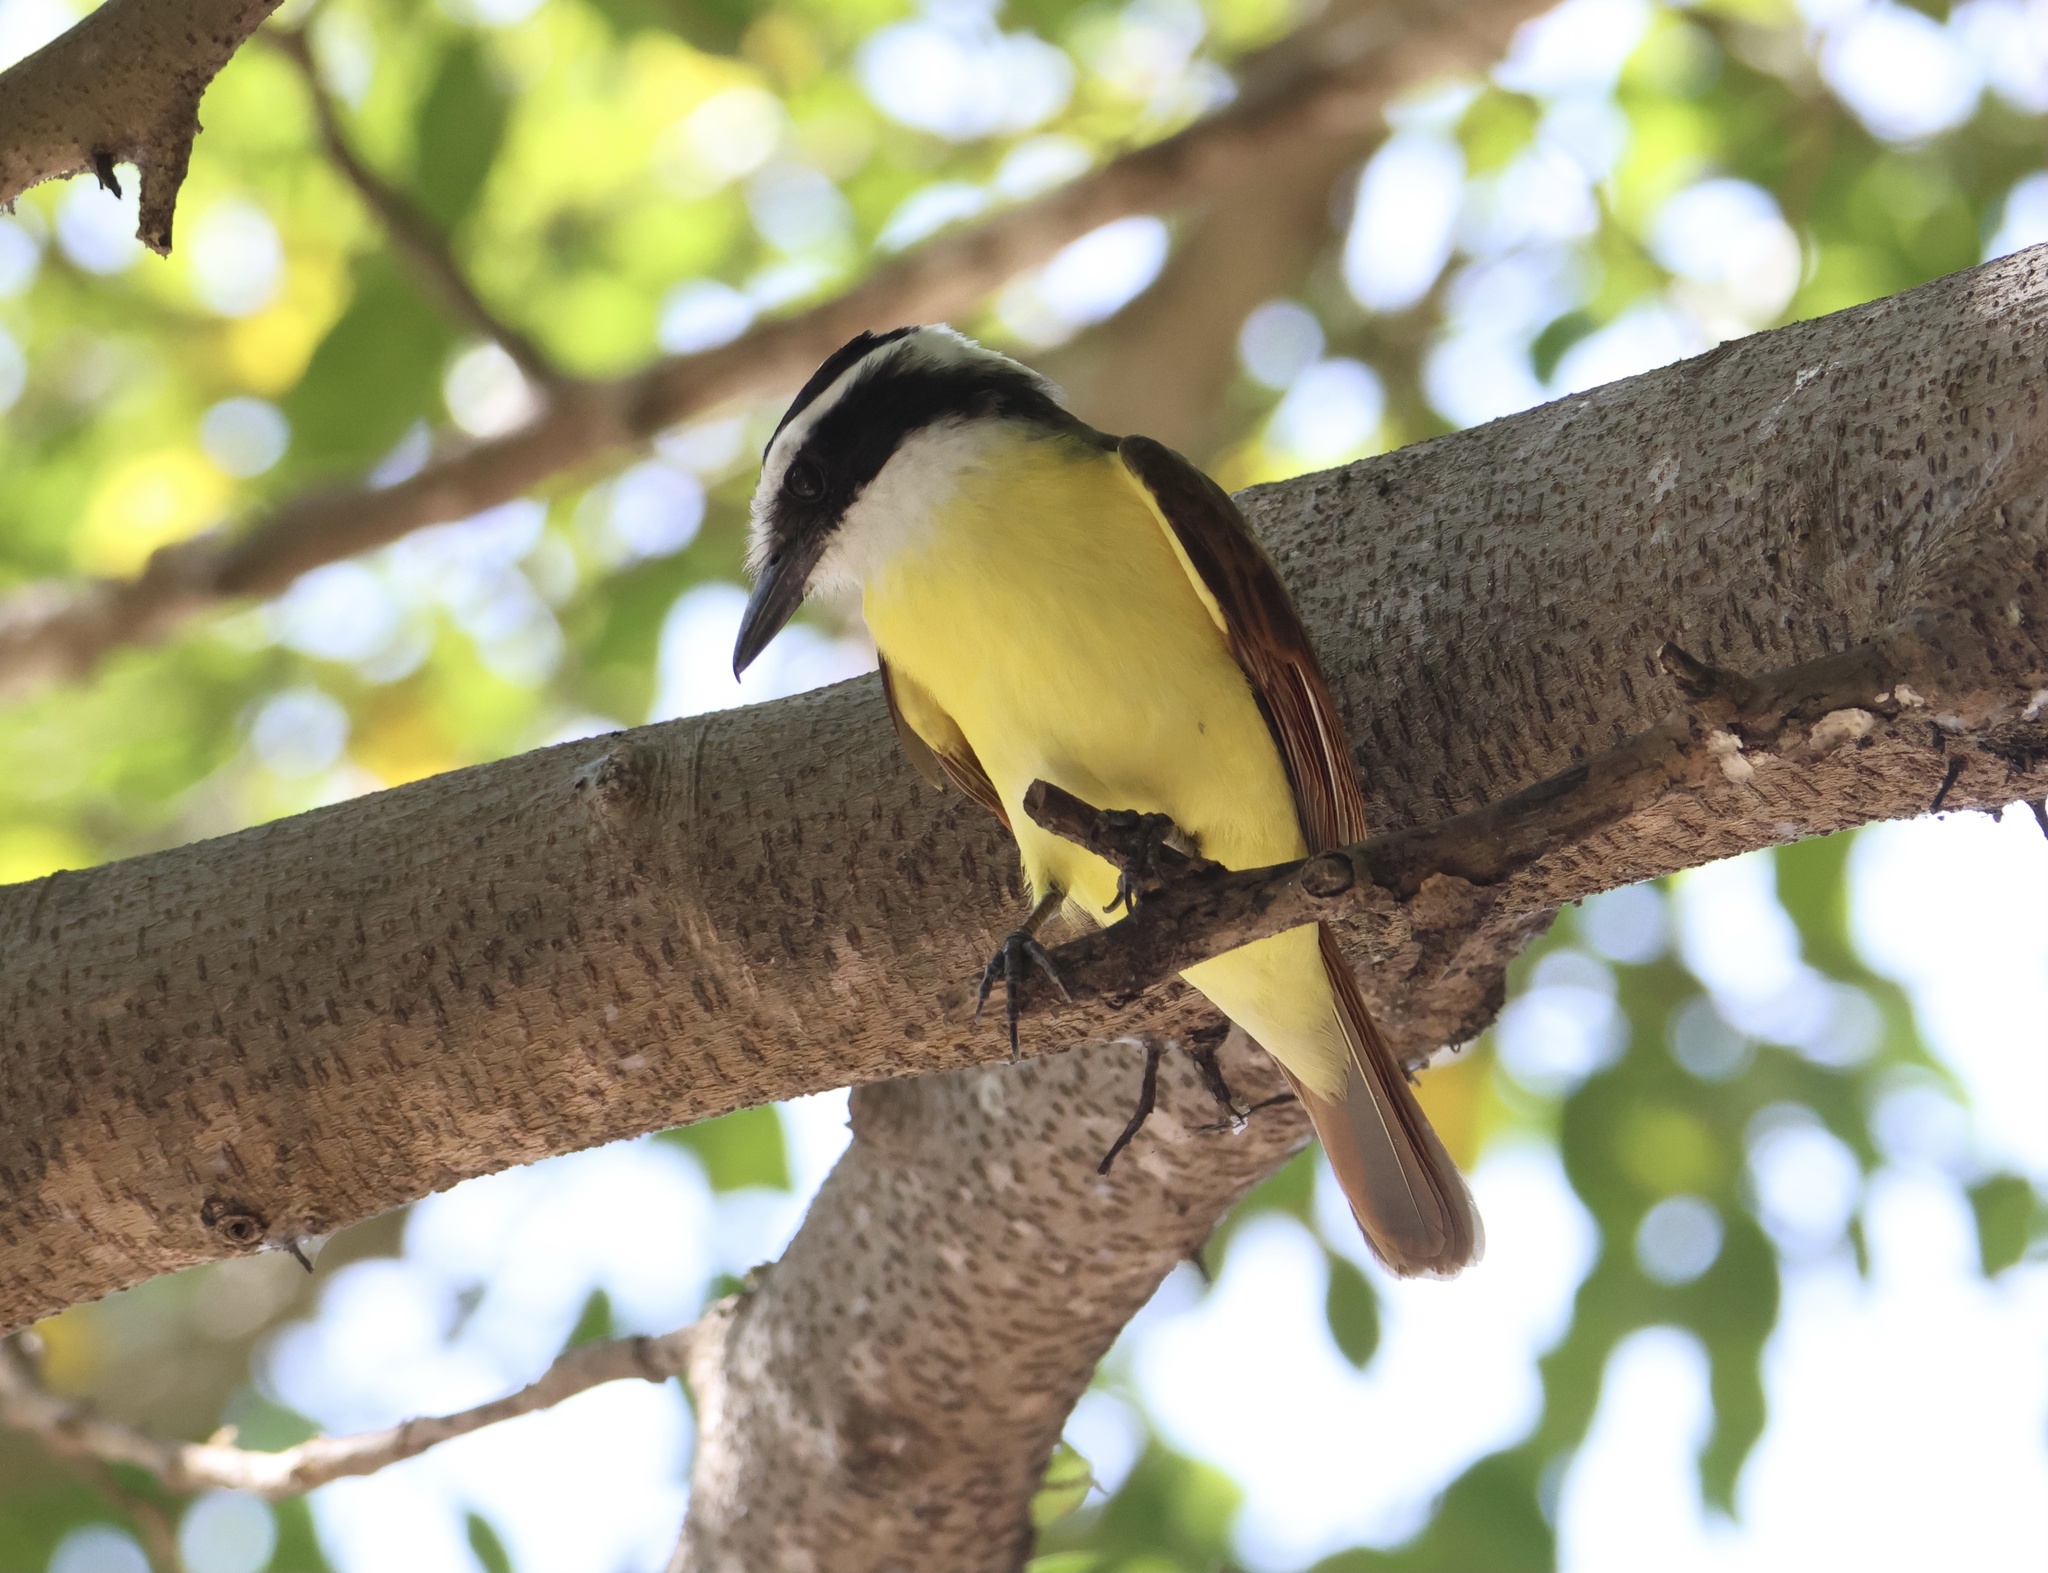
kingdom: Animalia
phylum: Chordata
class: Aves
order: Passeriformes
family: Tyrannidae
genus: Pitangus
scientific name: Pitangus sulphuratus
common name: Great kiskadee
